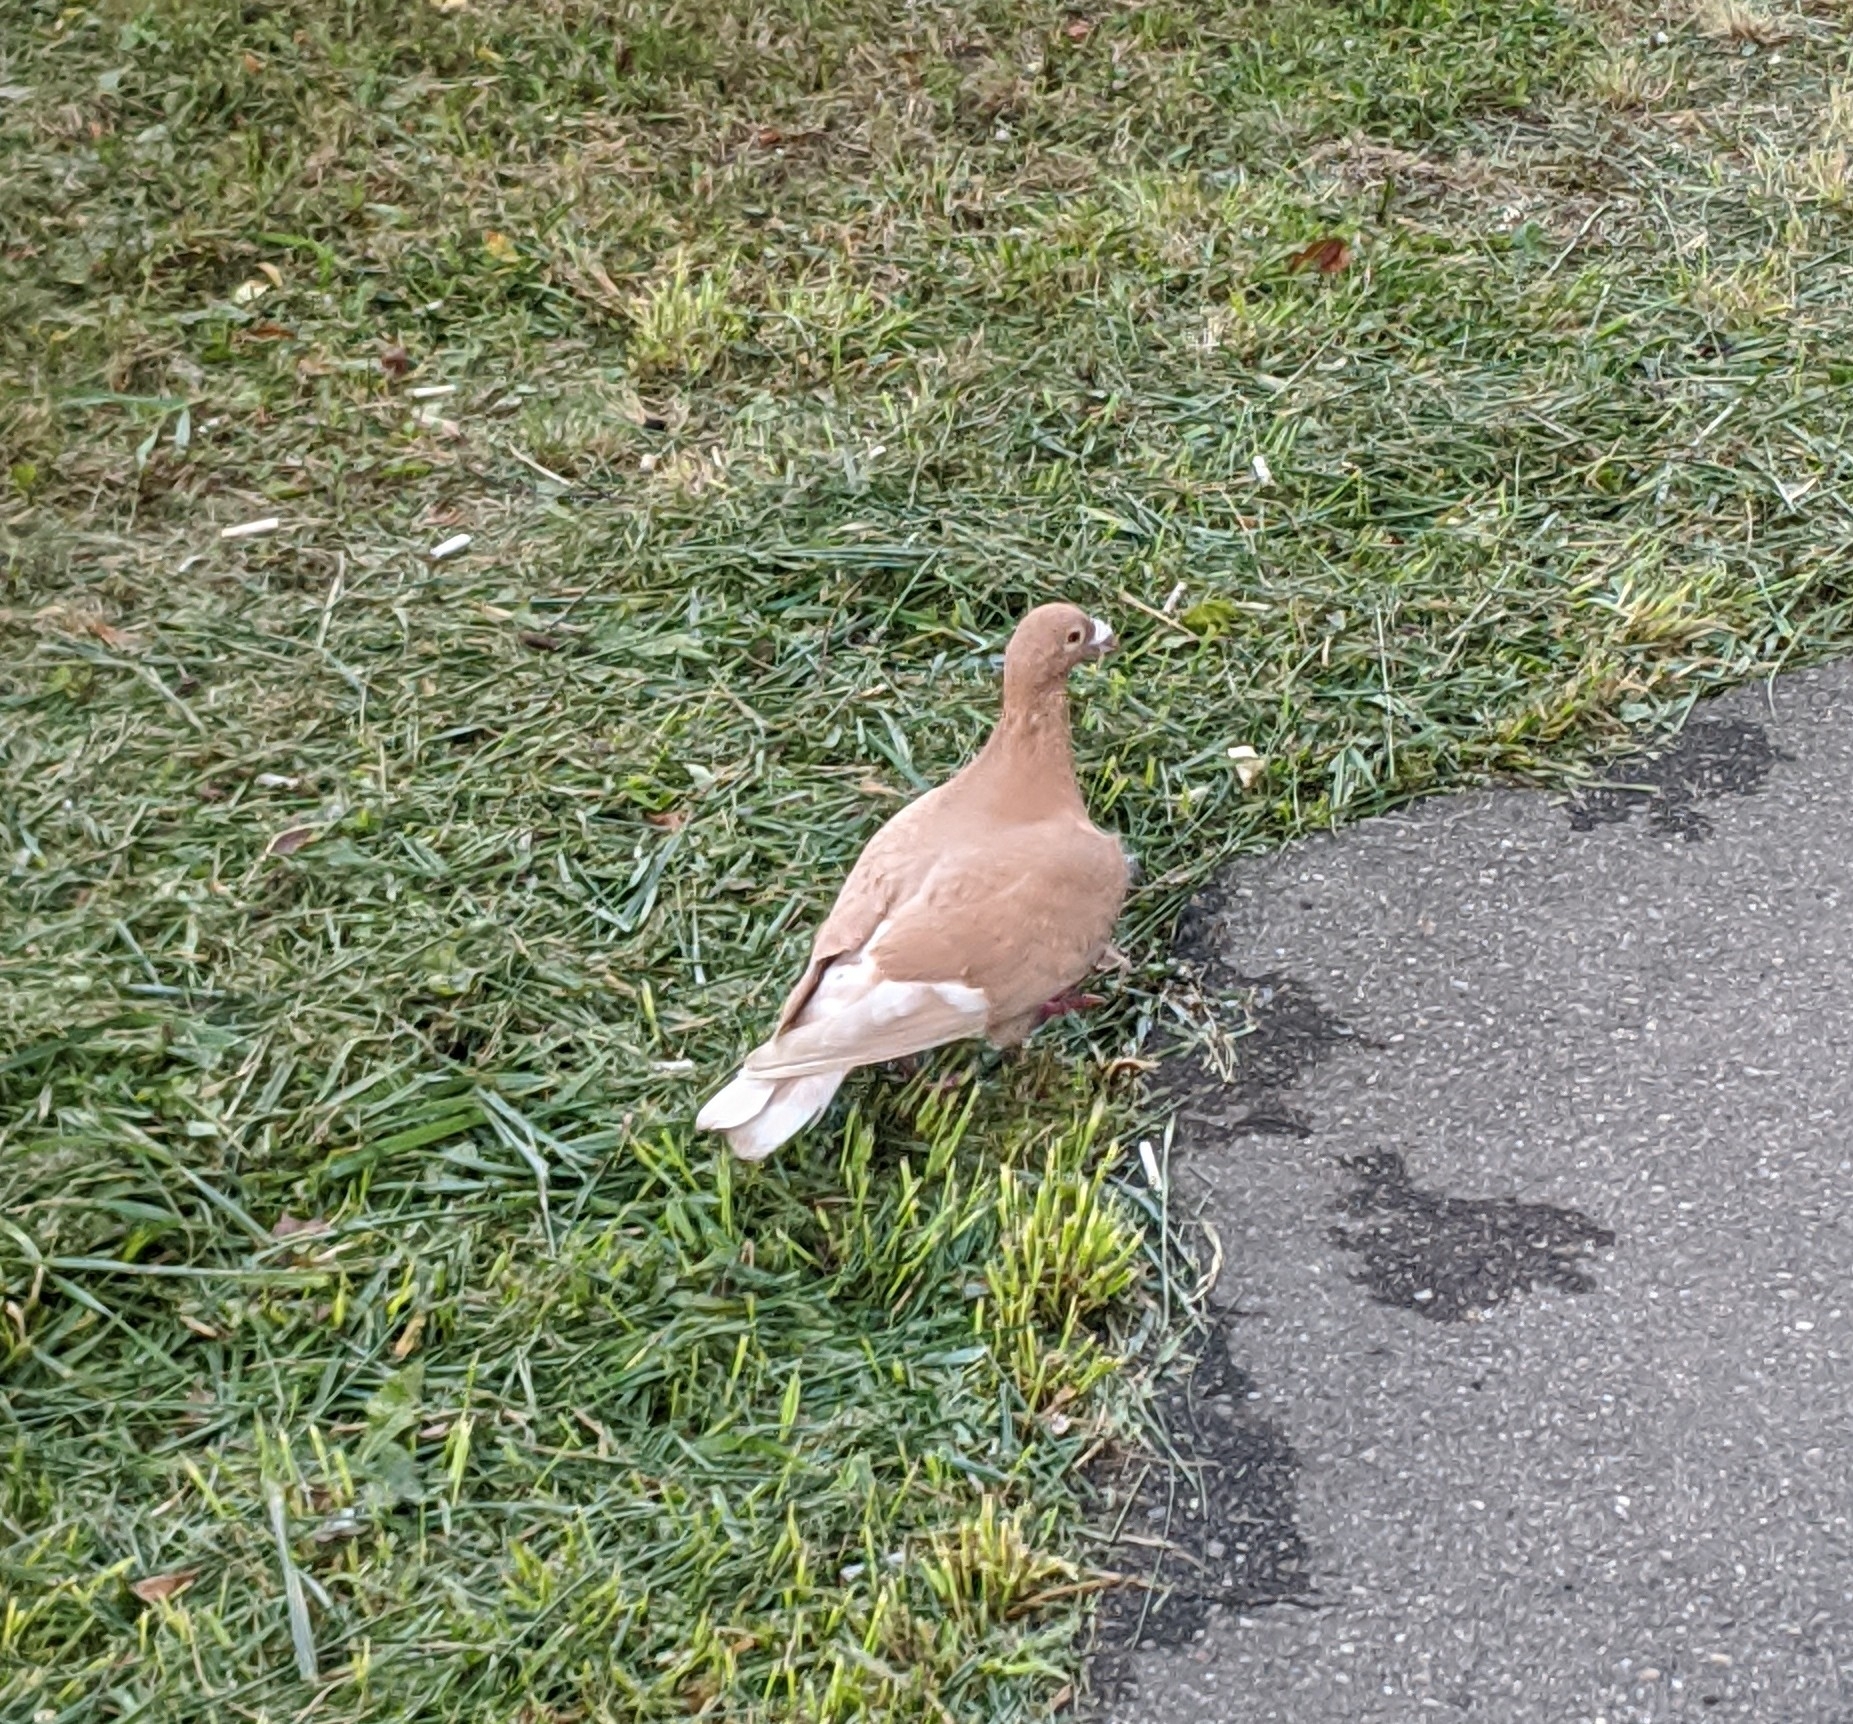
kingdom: Animalia
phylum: Chordata
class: Aves
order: Columbiformes
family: Columbidae
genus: Columba
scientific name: Columba livia
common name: Rock pigeon
